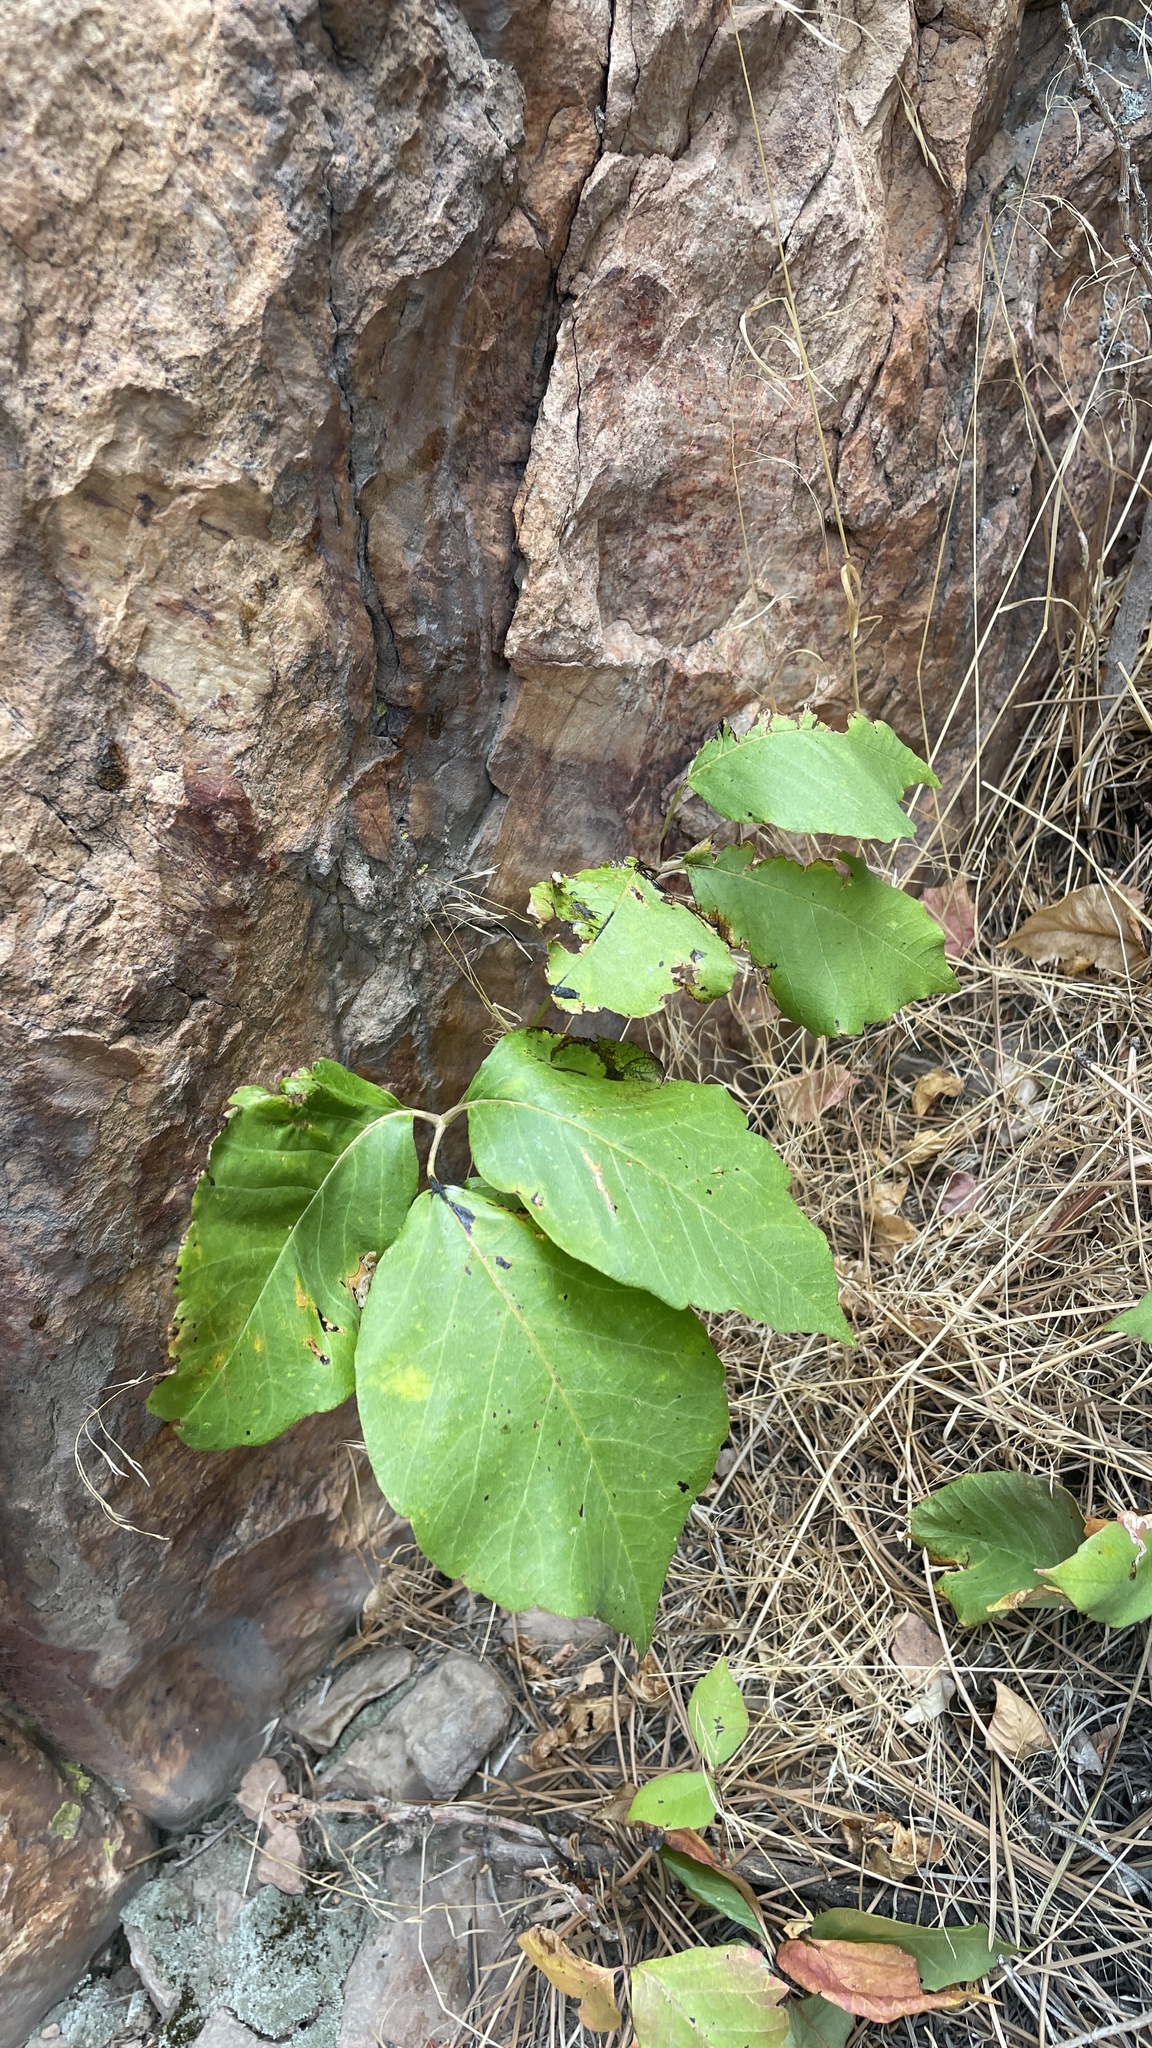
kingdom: Plantae
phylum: Tracheophyta
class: Magnoliopsida
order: Sapindales
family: Anacardiaceae
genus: Toxicodendron
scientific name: Toxicodendron rydbergii
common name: Rydberg's poison-ivy
